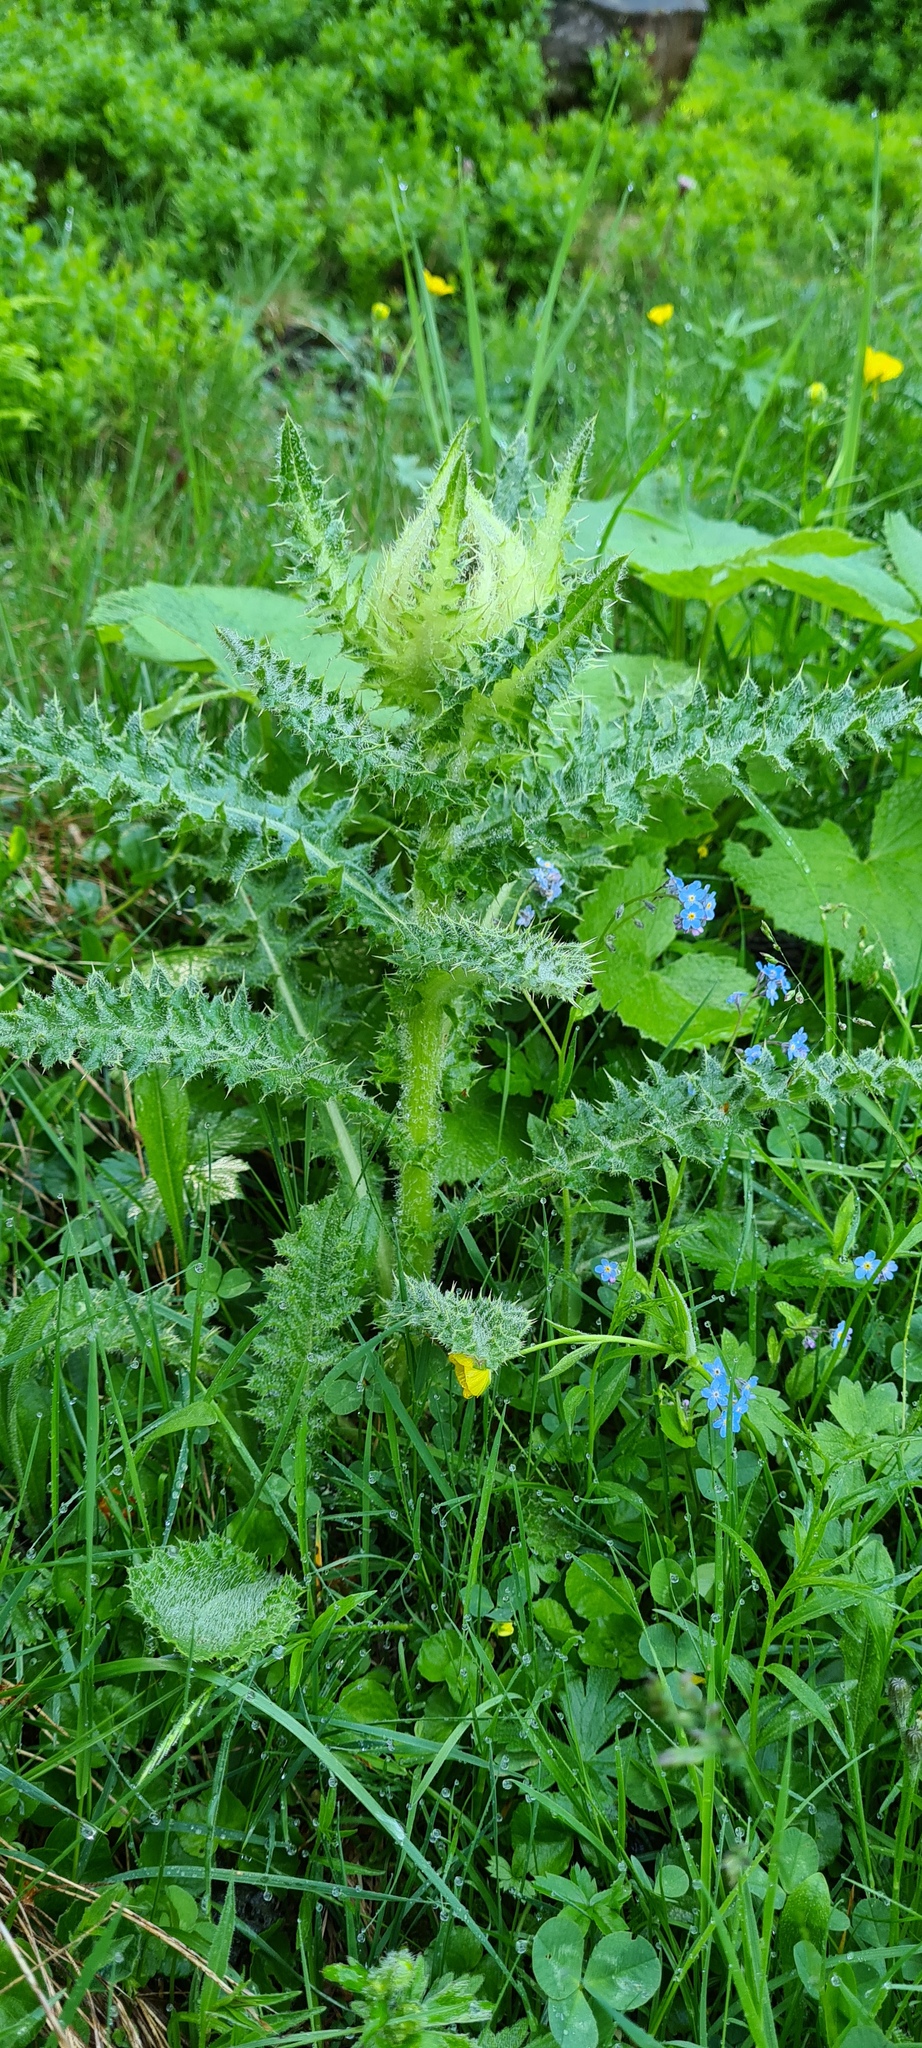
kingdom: Plantae
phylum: Tracheophyta
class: Magnoliopsida
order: Asterales
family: Asteraceae
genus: Cirsium
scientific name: Cirsium spinosissimum
